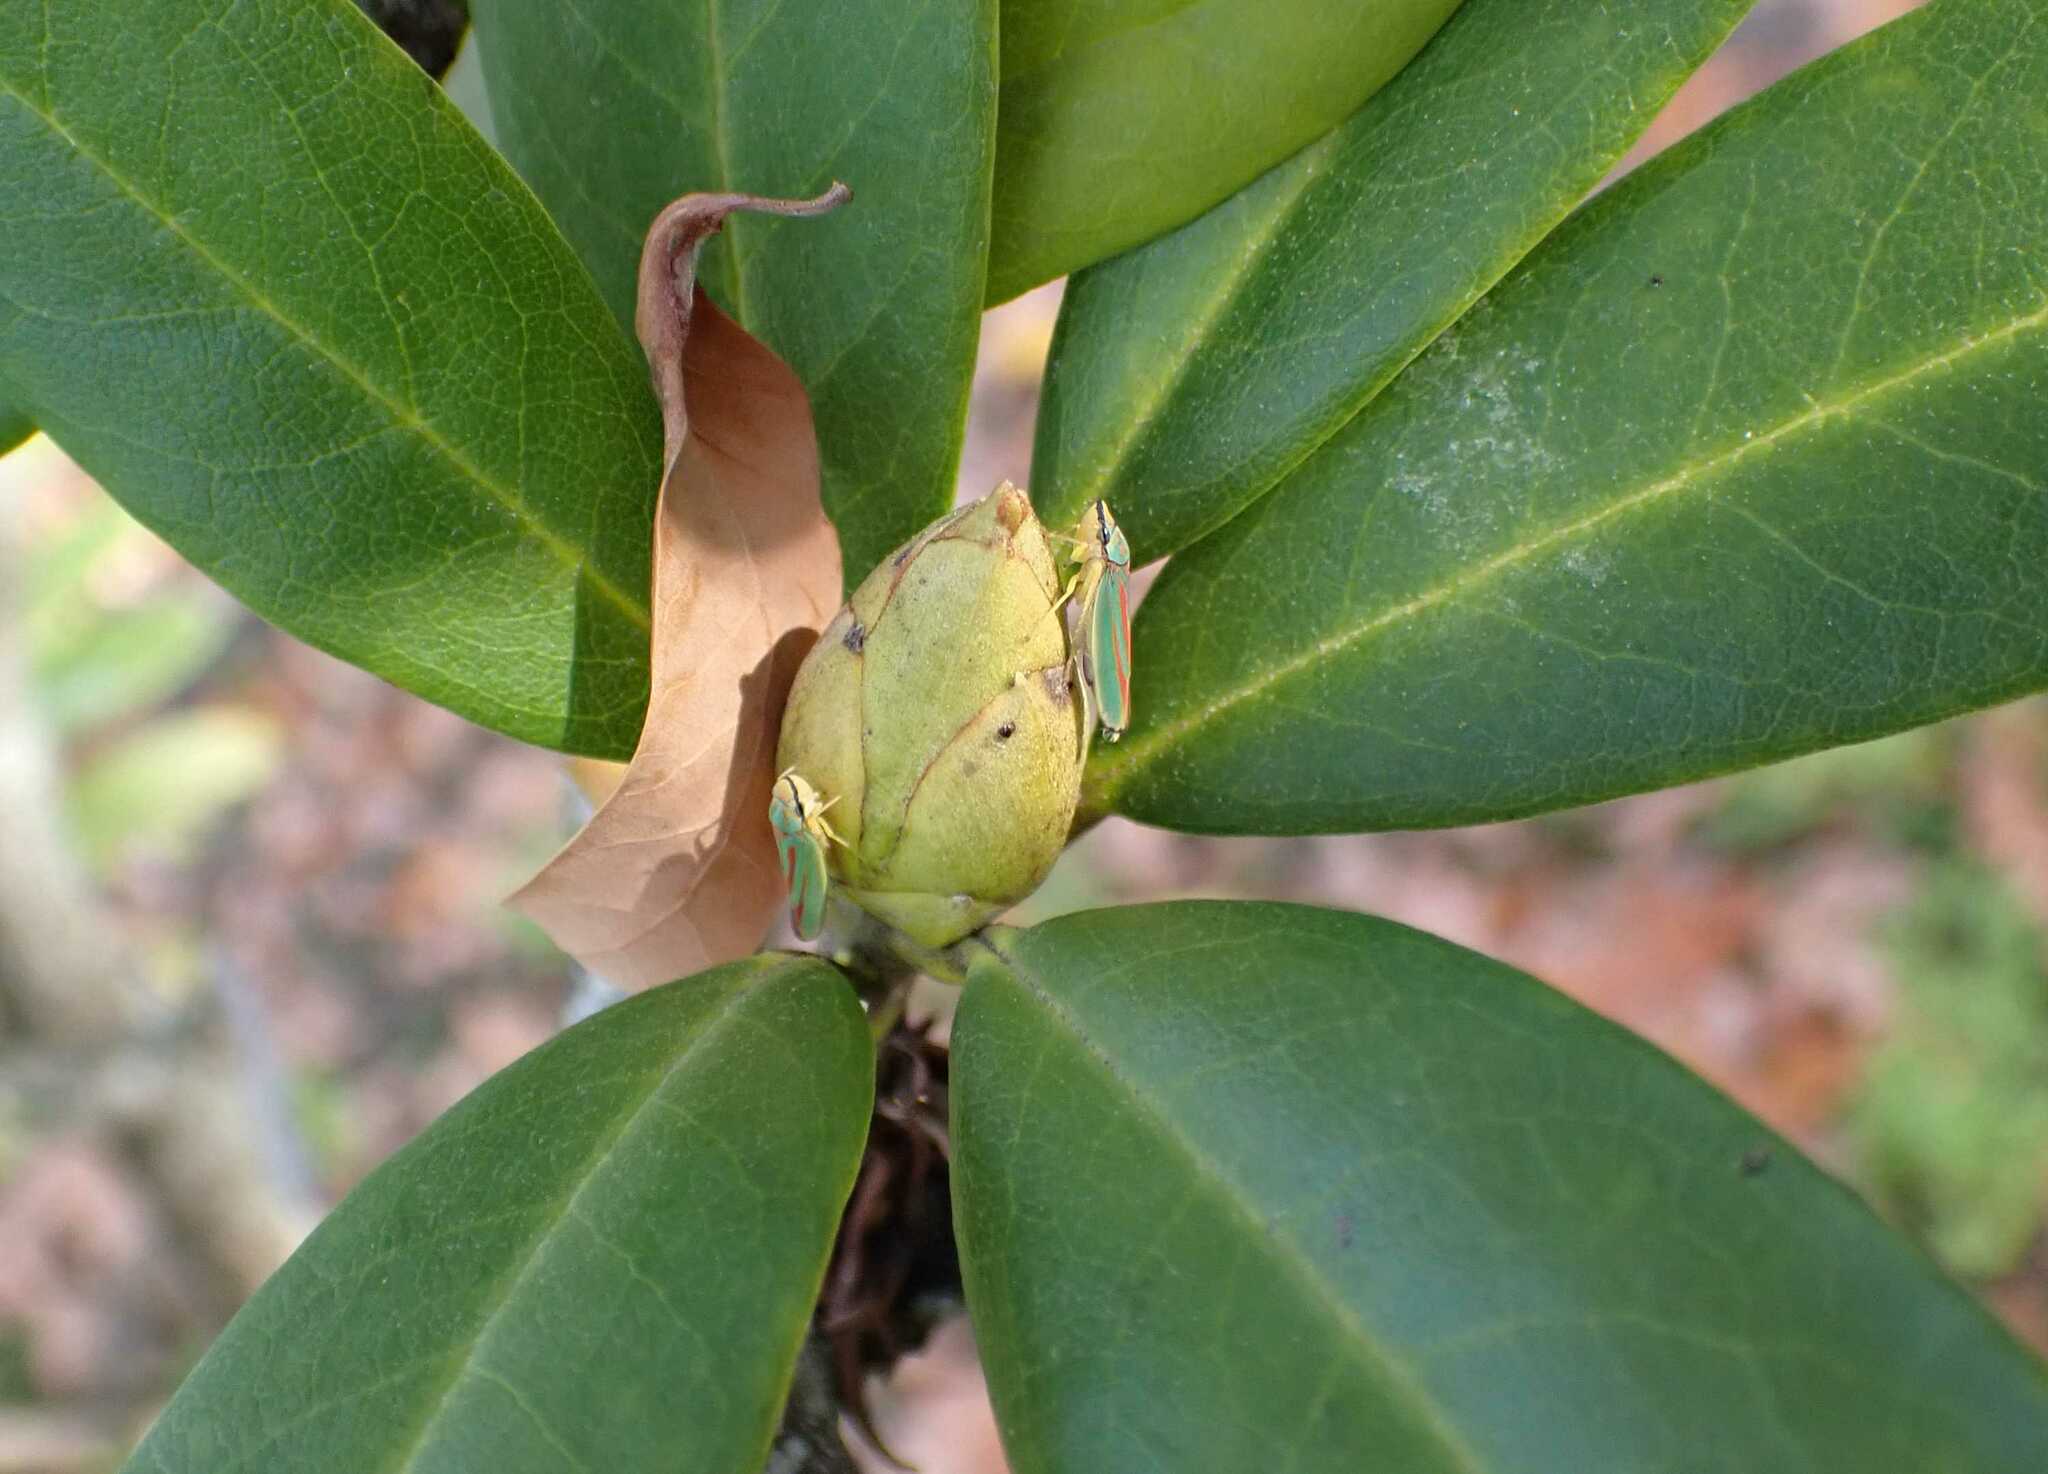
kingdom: Animalia
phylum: Arthropoda
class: Insecta
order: Hemiptera
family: Cicadellidae
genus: Graphocephala
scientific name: Graphocephala fennahi
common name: Rhododendron leafhopper
